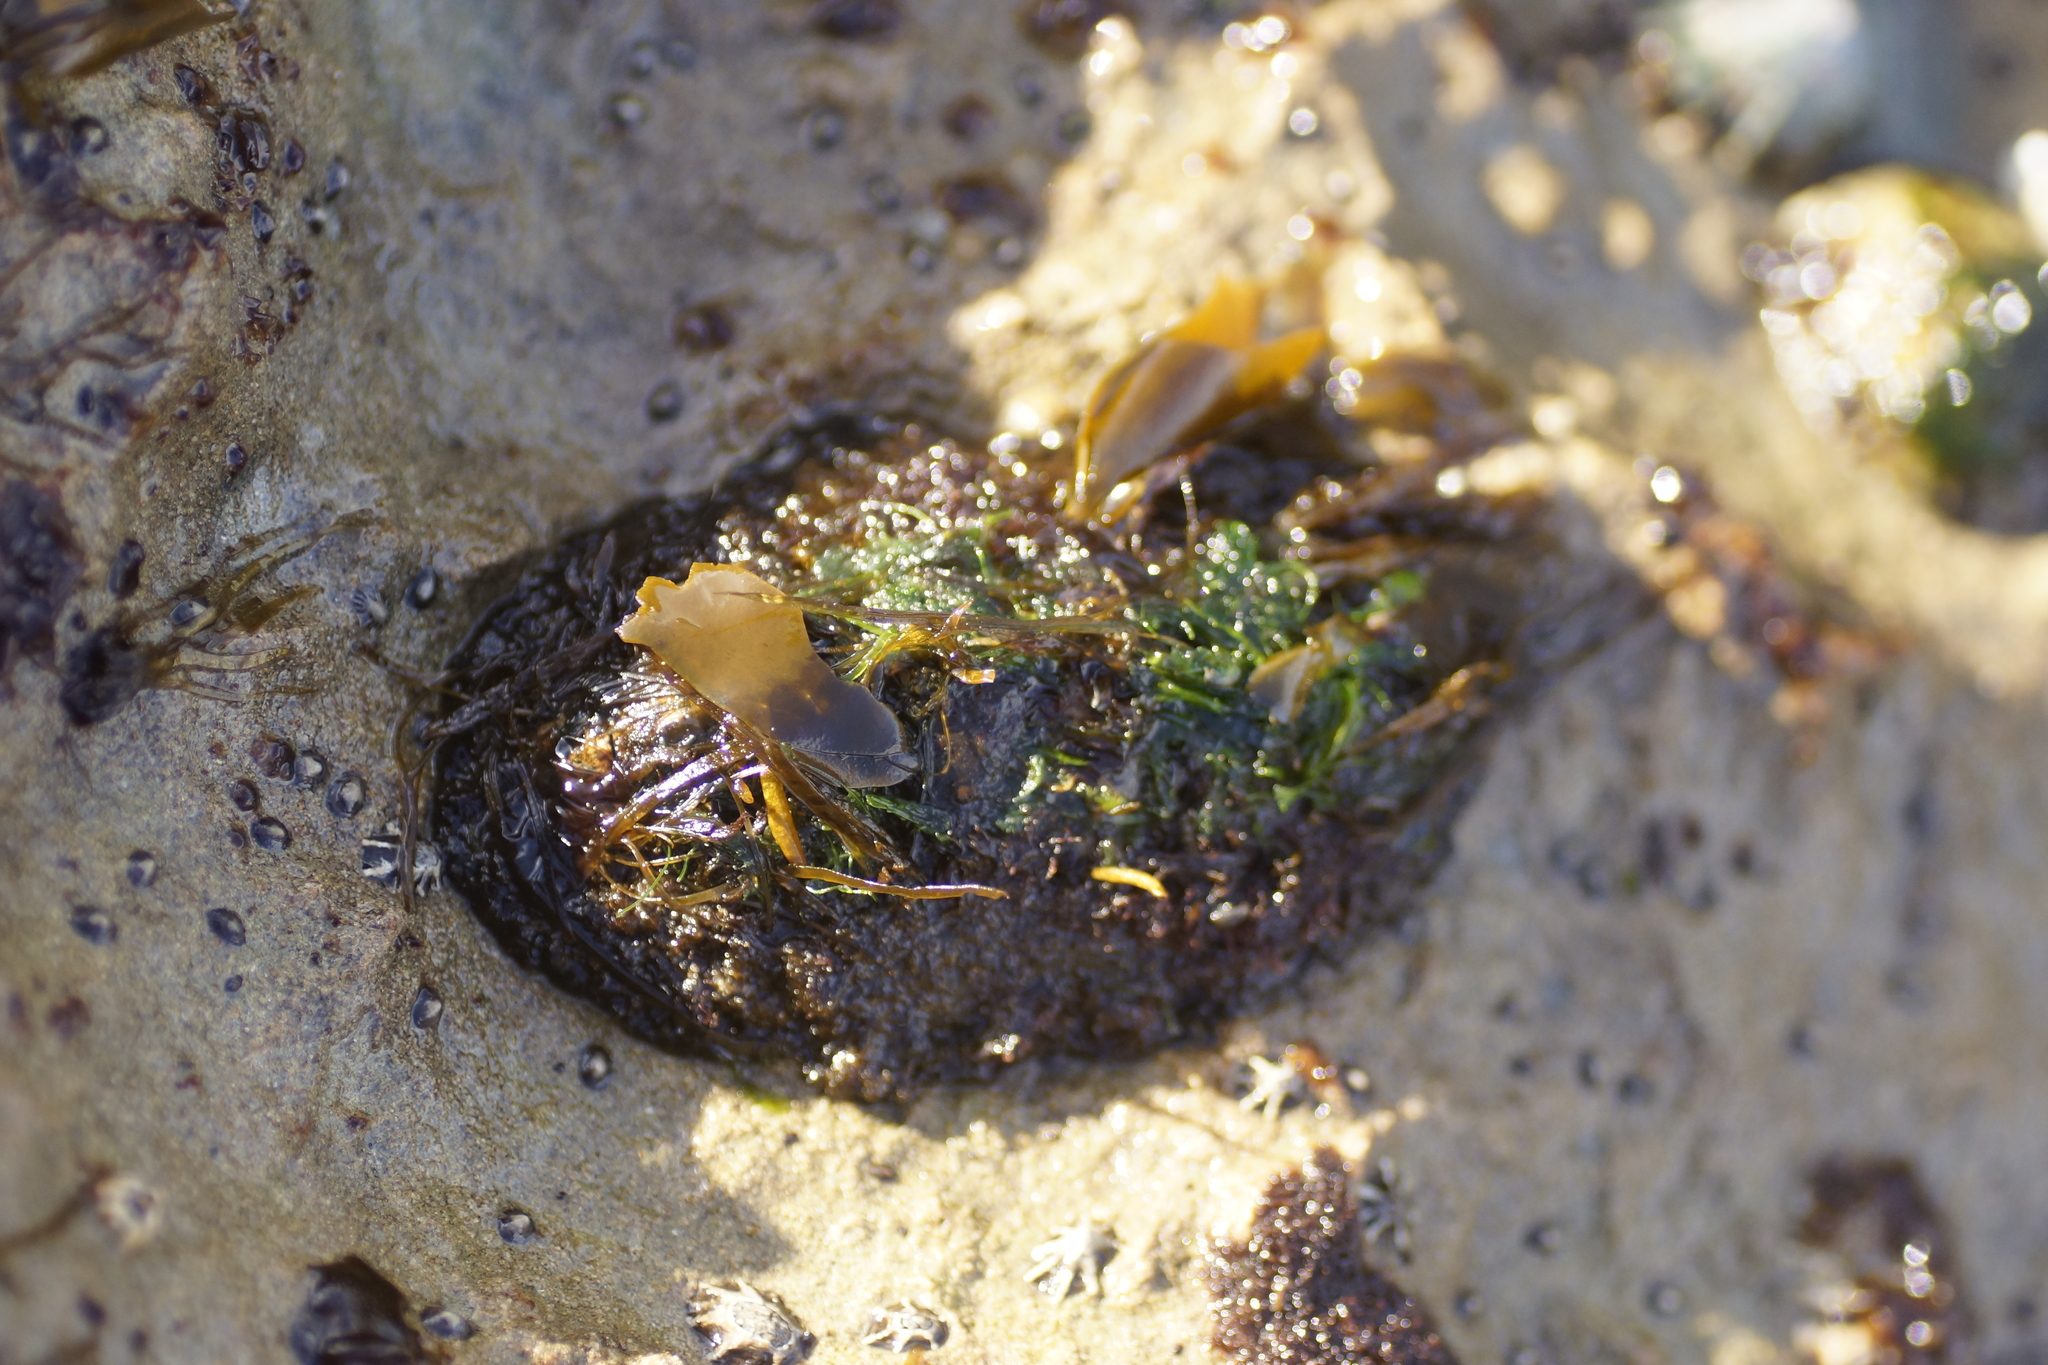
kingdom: Animalia
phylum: Mollusca
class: Polyplacophora
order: Chitonida
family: Mopaliidae
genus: Plaxiphora
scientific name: Plaxiphora albida
